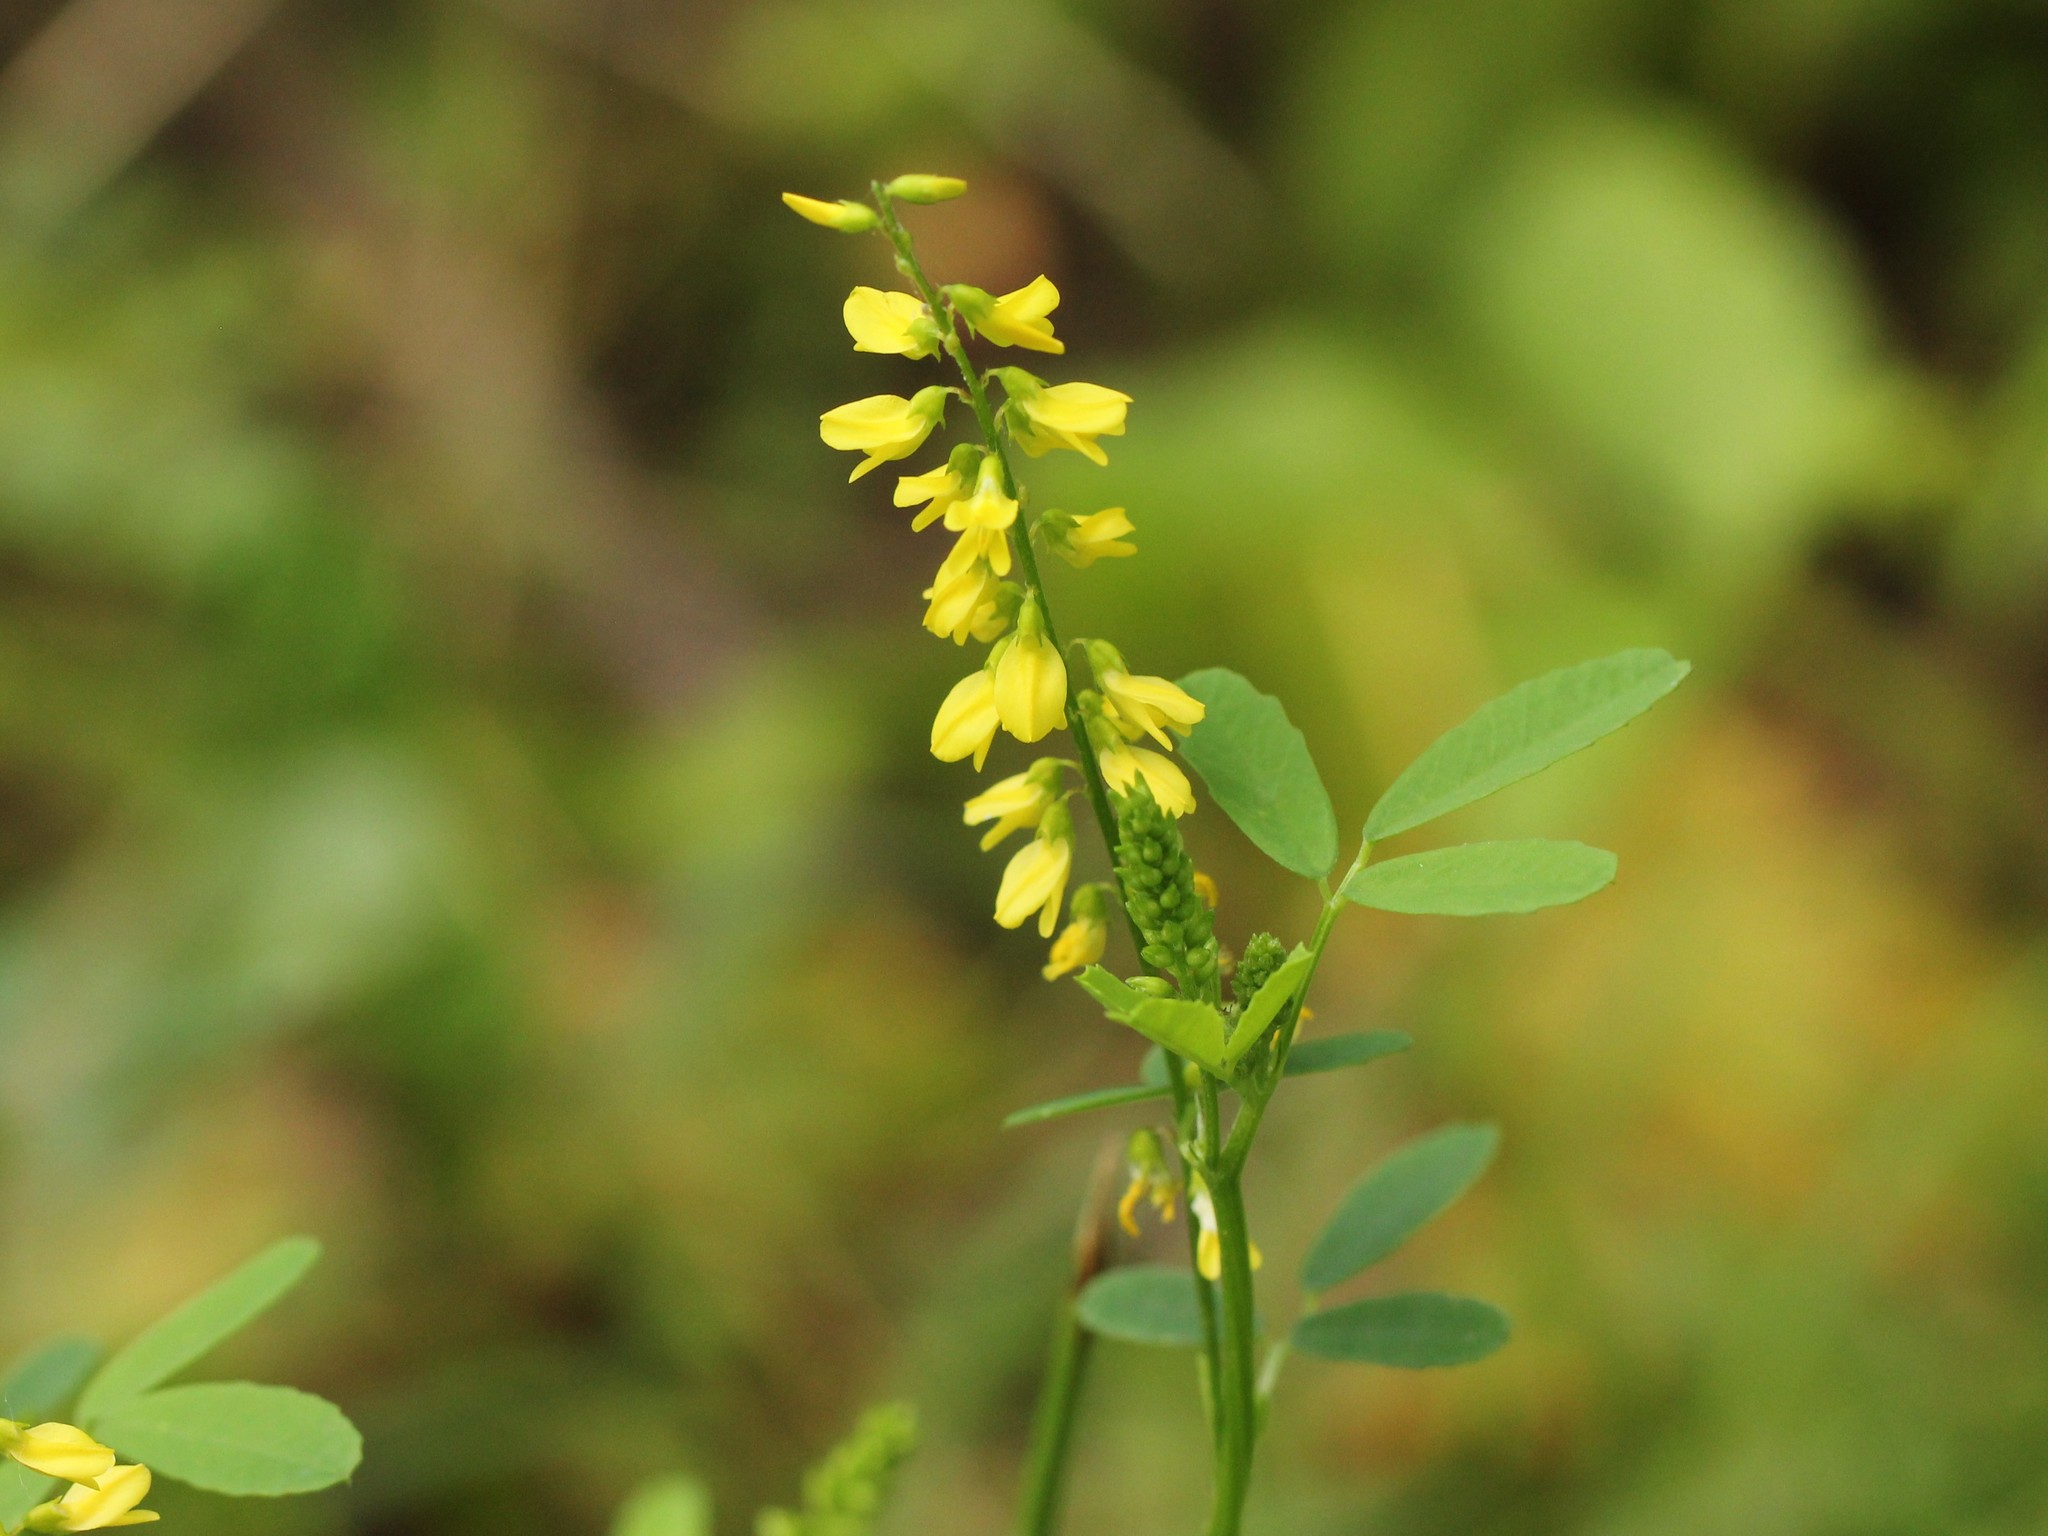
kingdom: Plantae
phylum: Tracheophyta
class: Magnoliopsida
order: Fabales
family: Fabaceae
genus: Melilotus
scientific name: Melilotus officinalis
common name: Sweetclover
